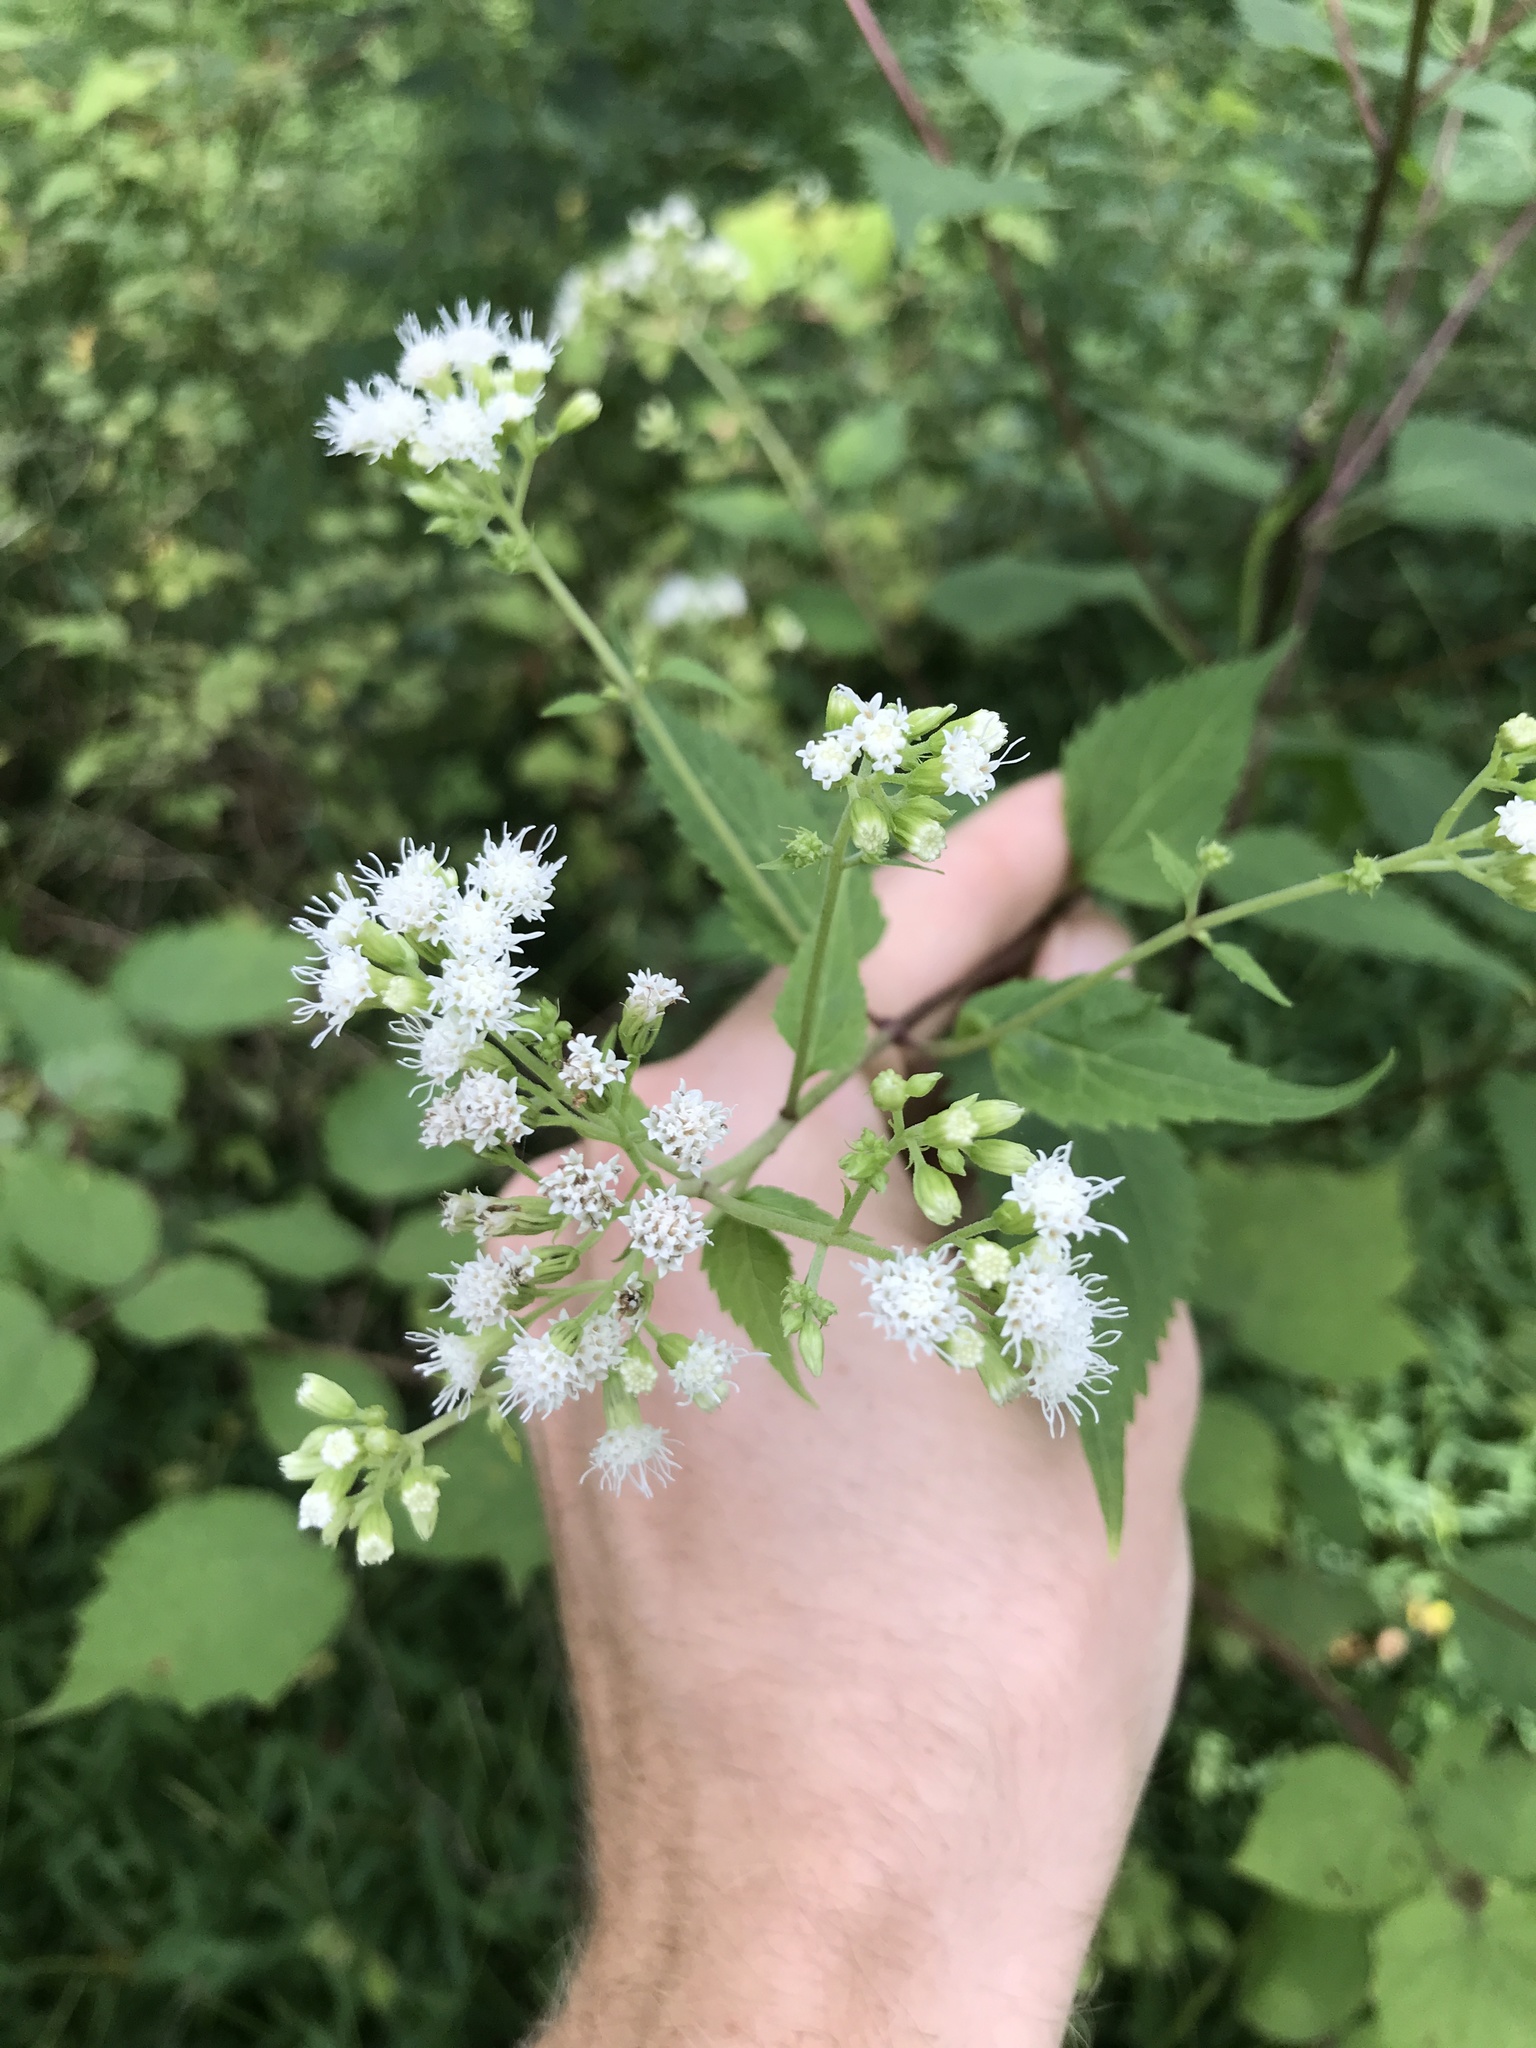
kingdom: Plantae
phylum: Tracheophyta
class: Magnoliopsida
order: Asterales
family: Asteraceae
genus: Ageratina
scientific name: Ageratina altissima
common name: White snakeroot
